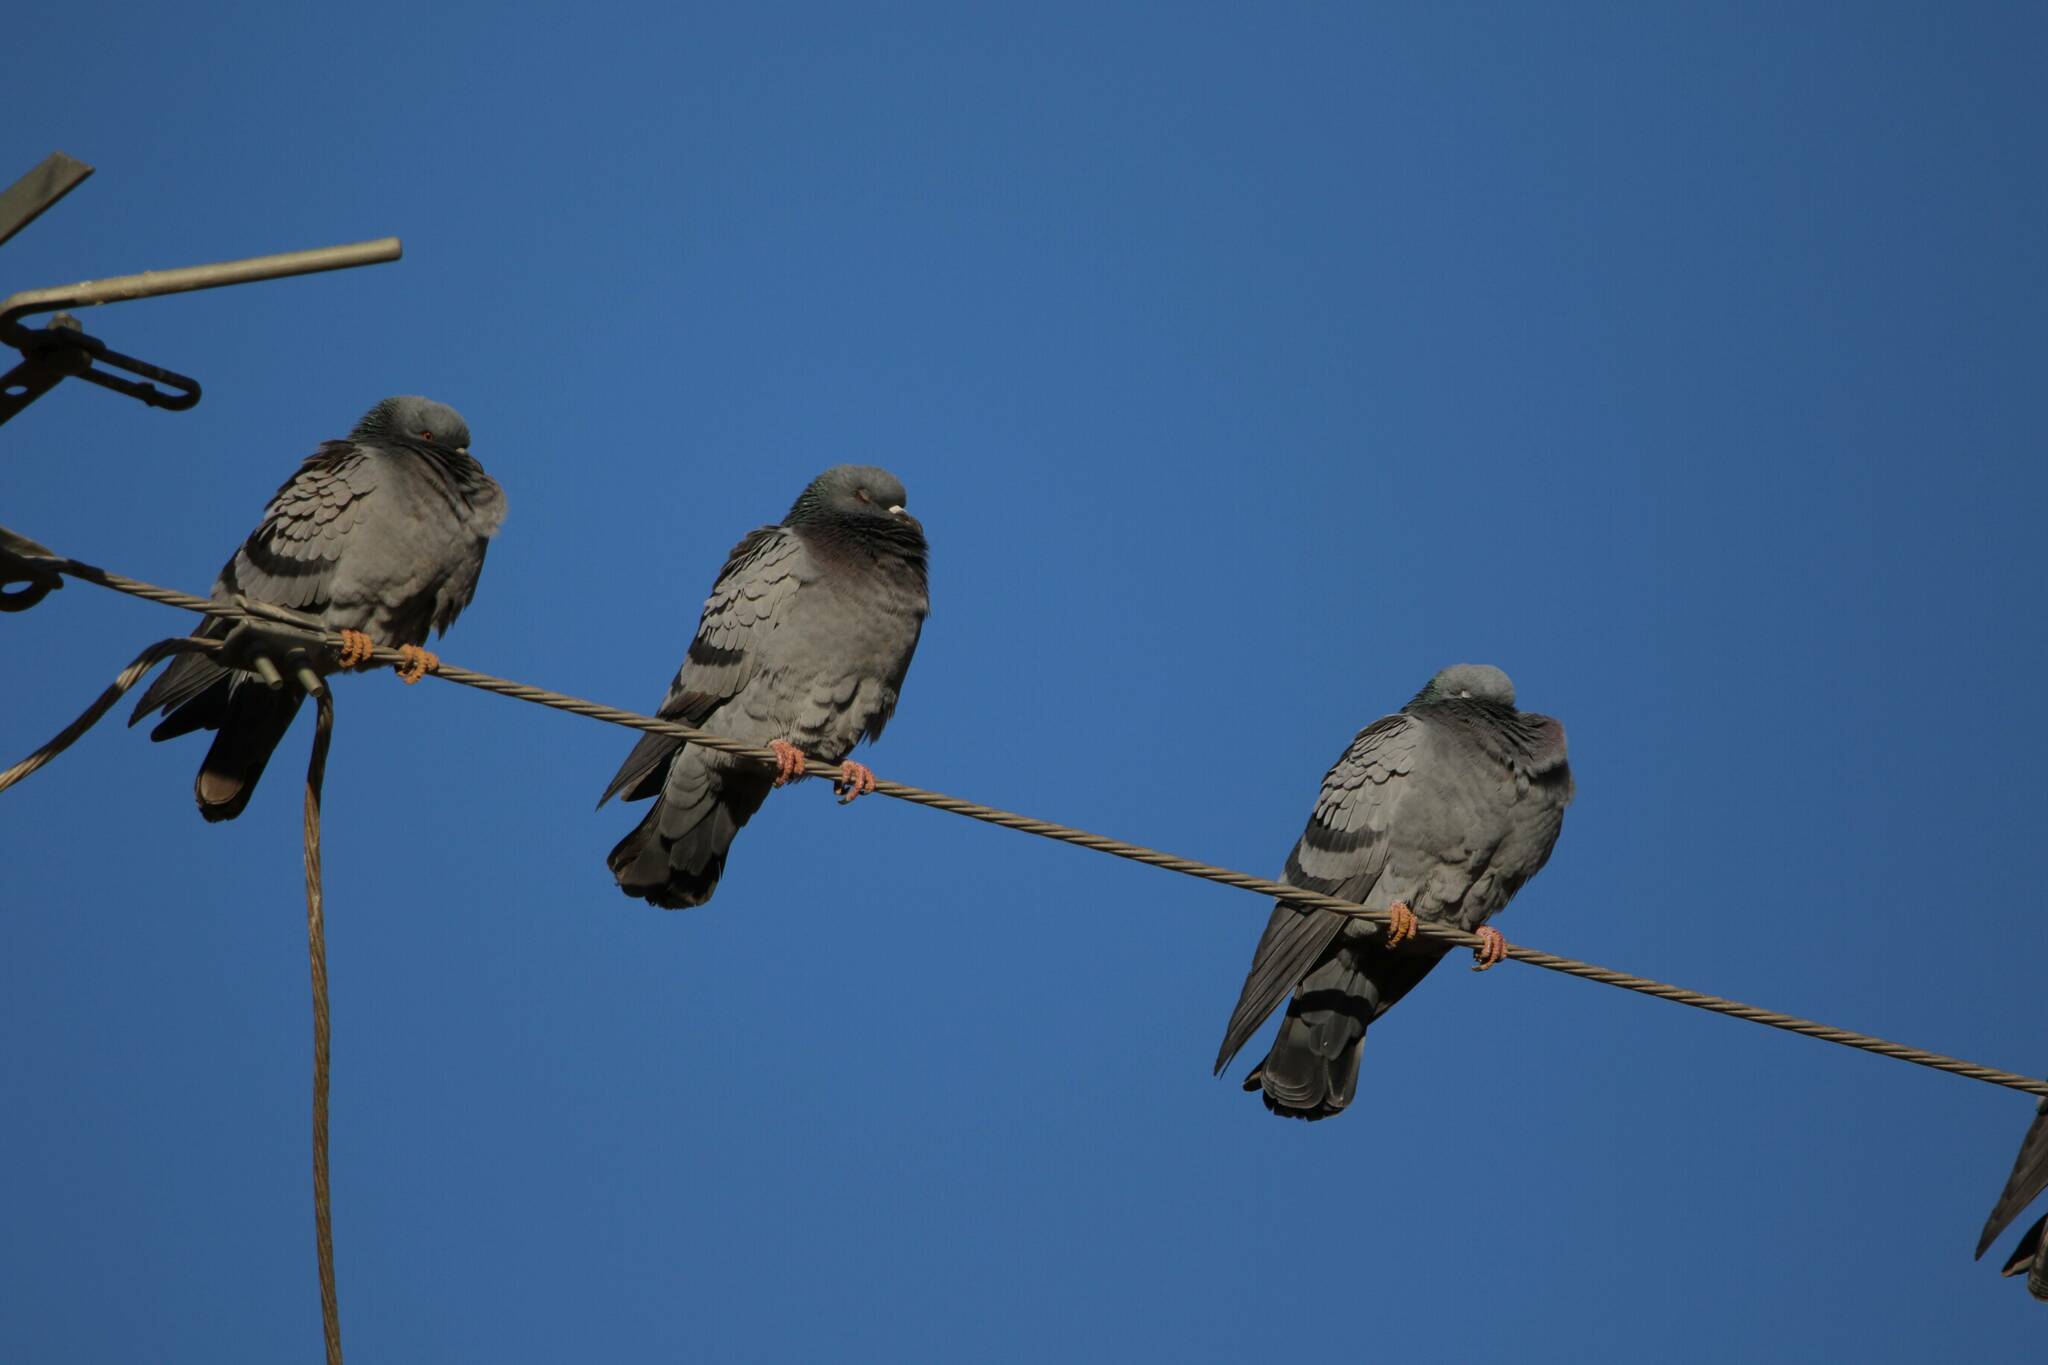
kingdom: Animalia
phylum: Chordata
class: Aves
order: Columbiformes
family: Columbidae
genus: Columba
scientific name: Columba livia
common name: Rock pigeon
